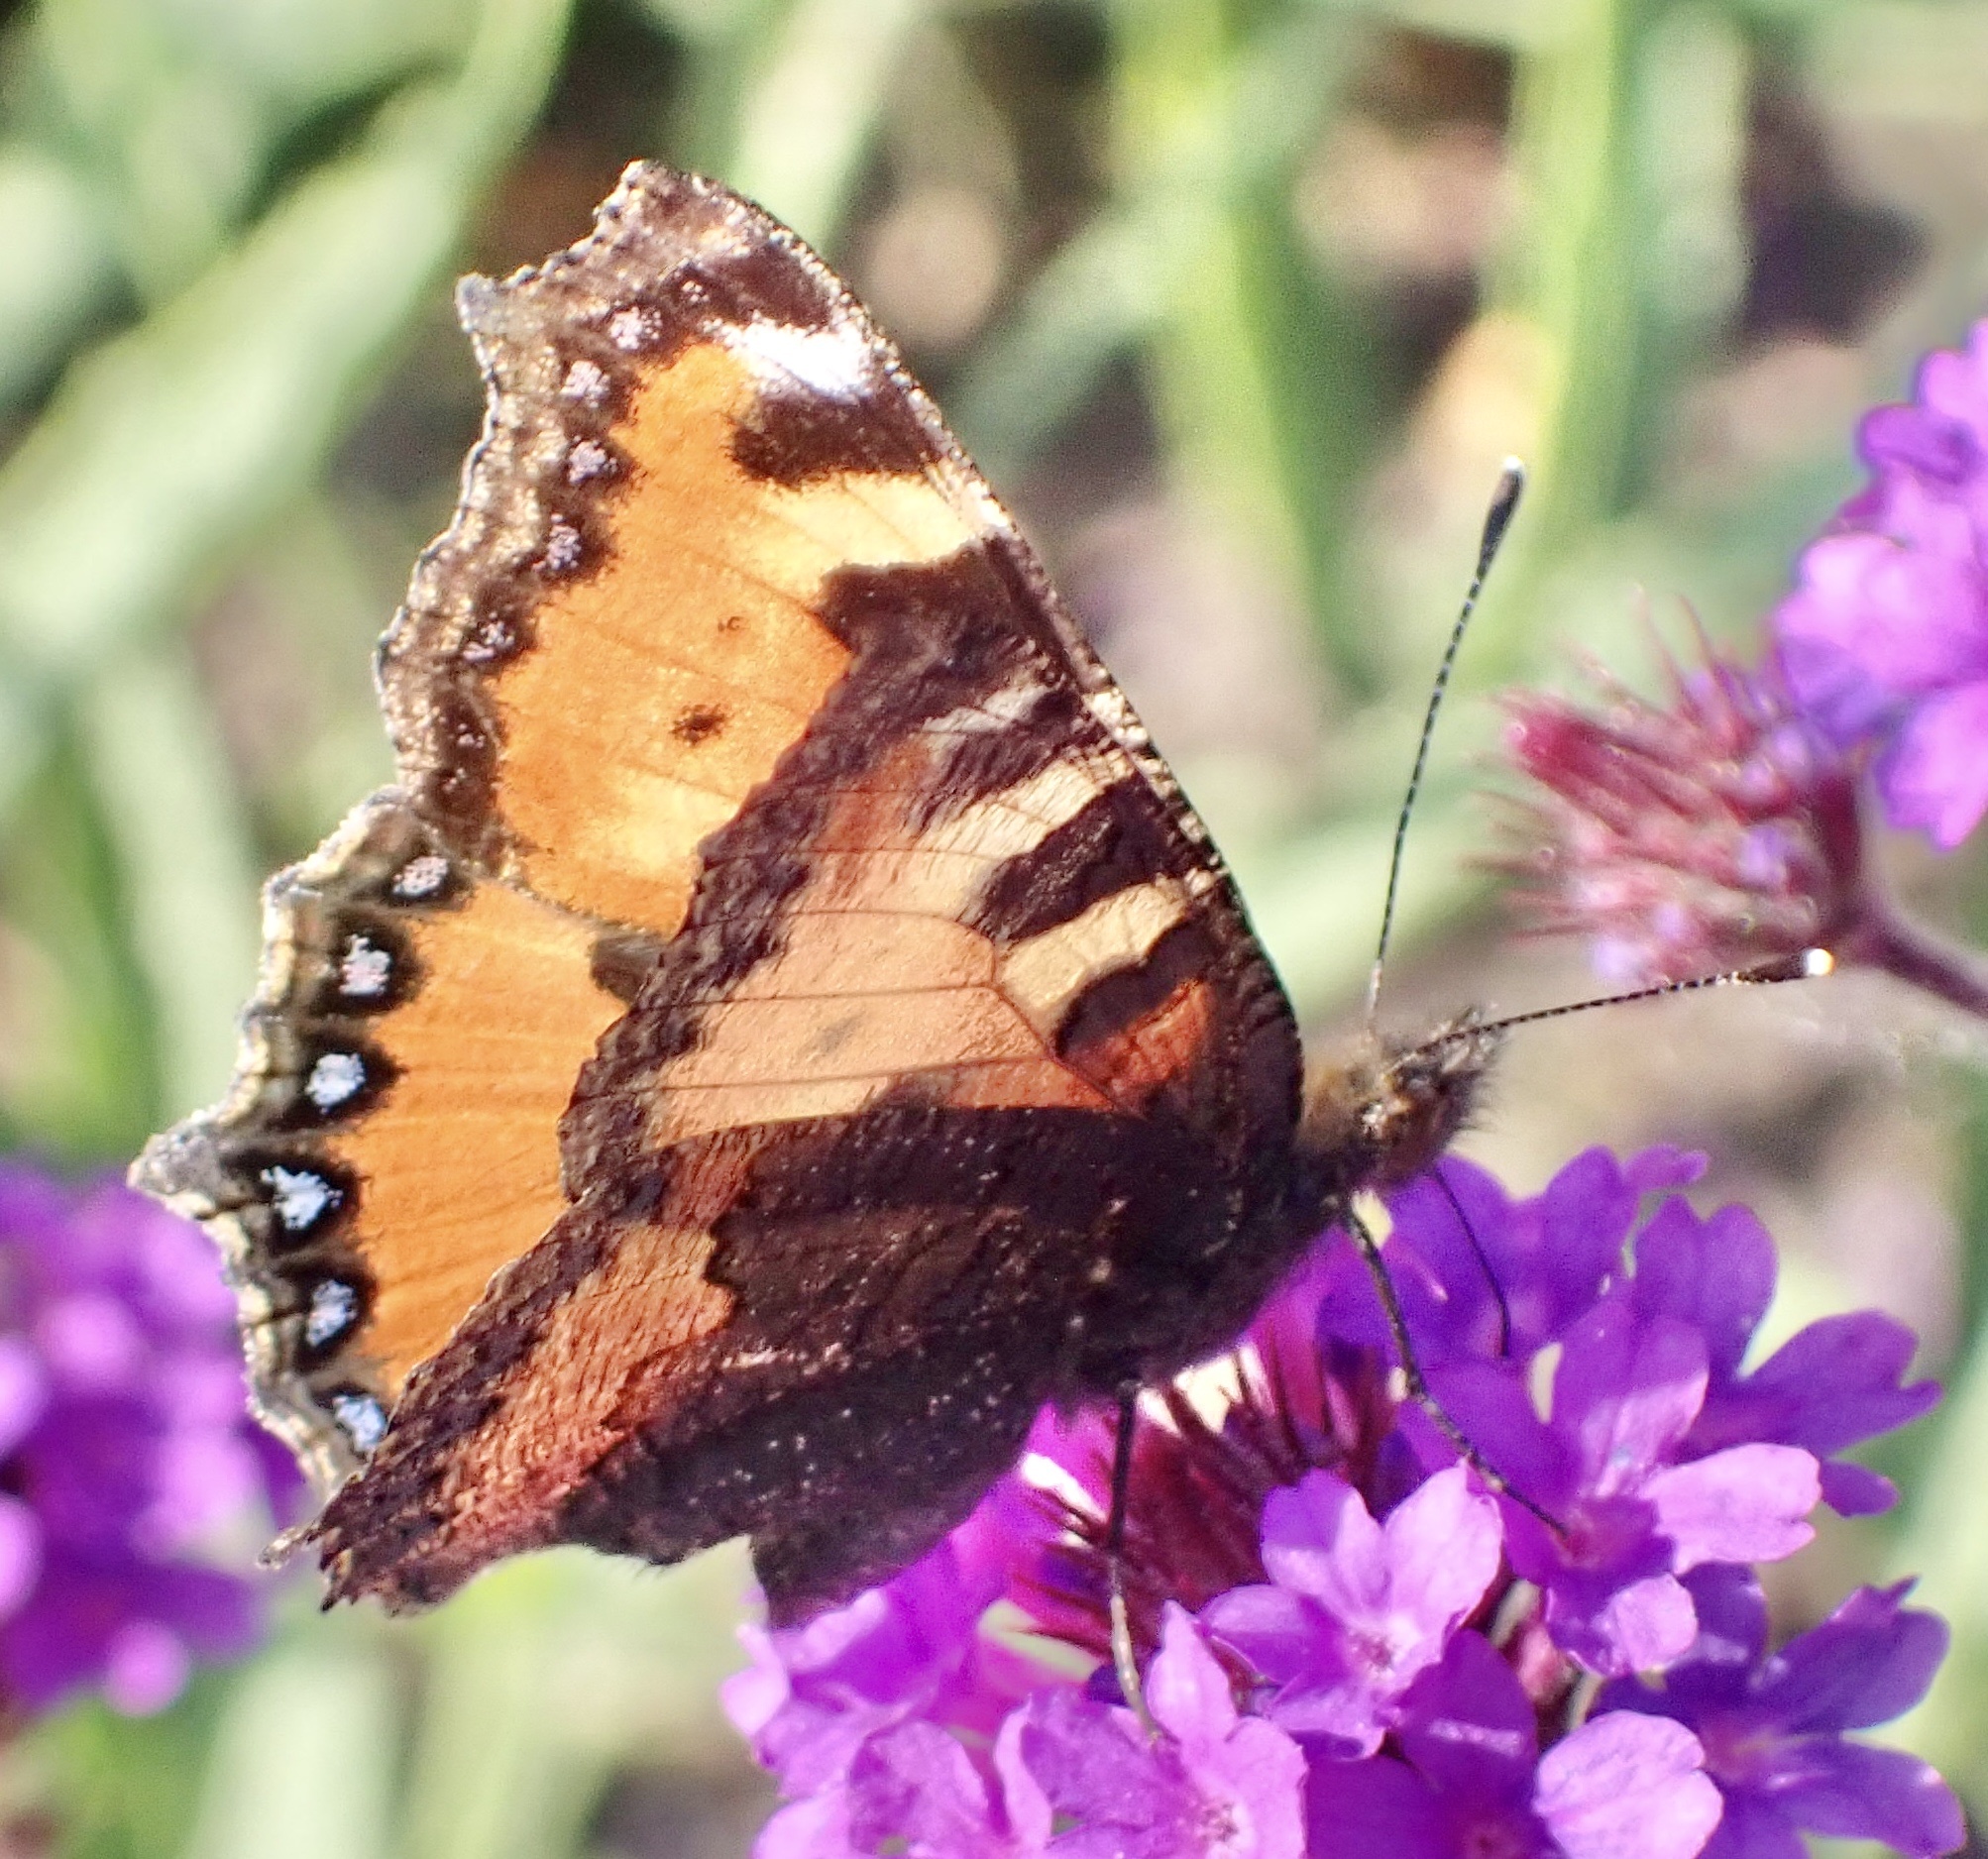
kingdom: Animalia
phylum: Arthropoda
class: Insecta
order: Lepidoptera
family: Nymphalidae
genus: Aglais
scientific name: Aglais urticae
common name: Small tortoiseshell
